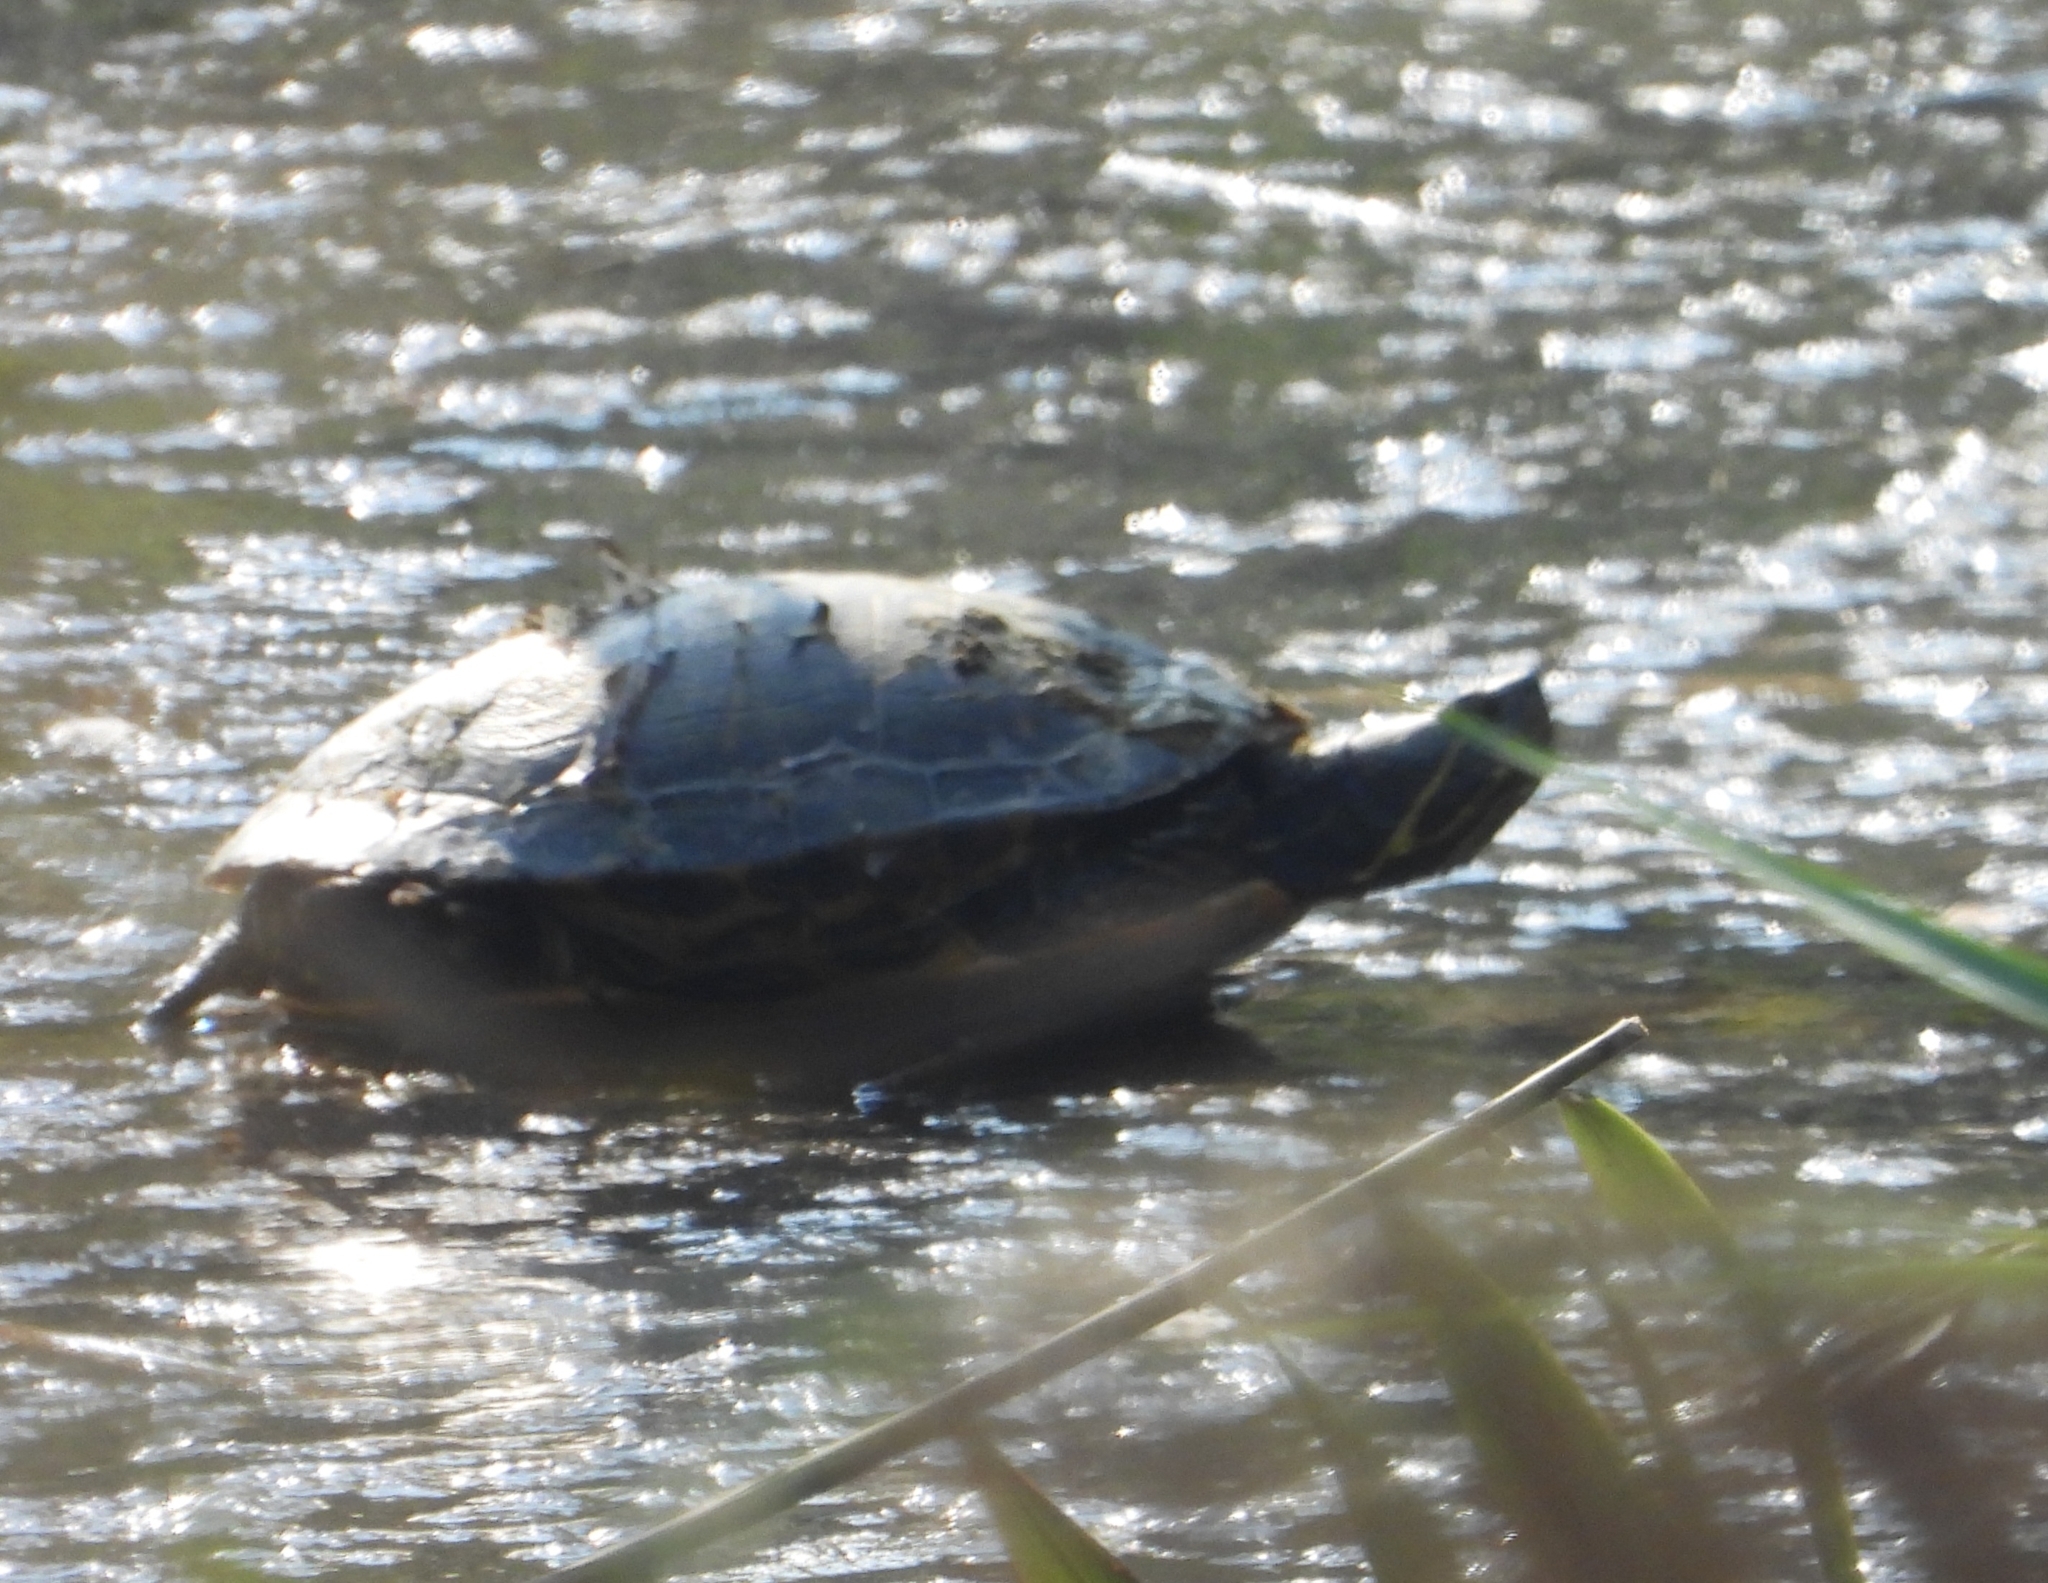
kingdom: Animalia
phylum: Chordata
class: Testudines
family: Emydidae
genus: Trachemys
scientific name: Trachemys scripta
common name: Slider
